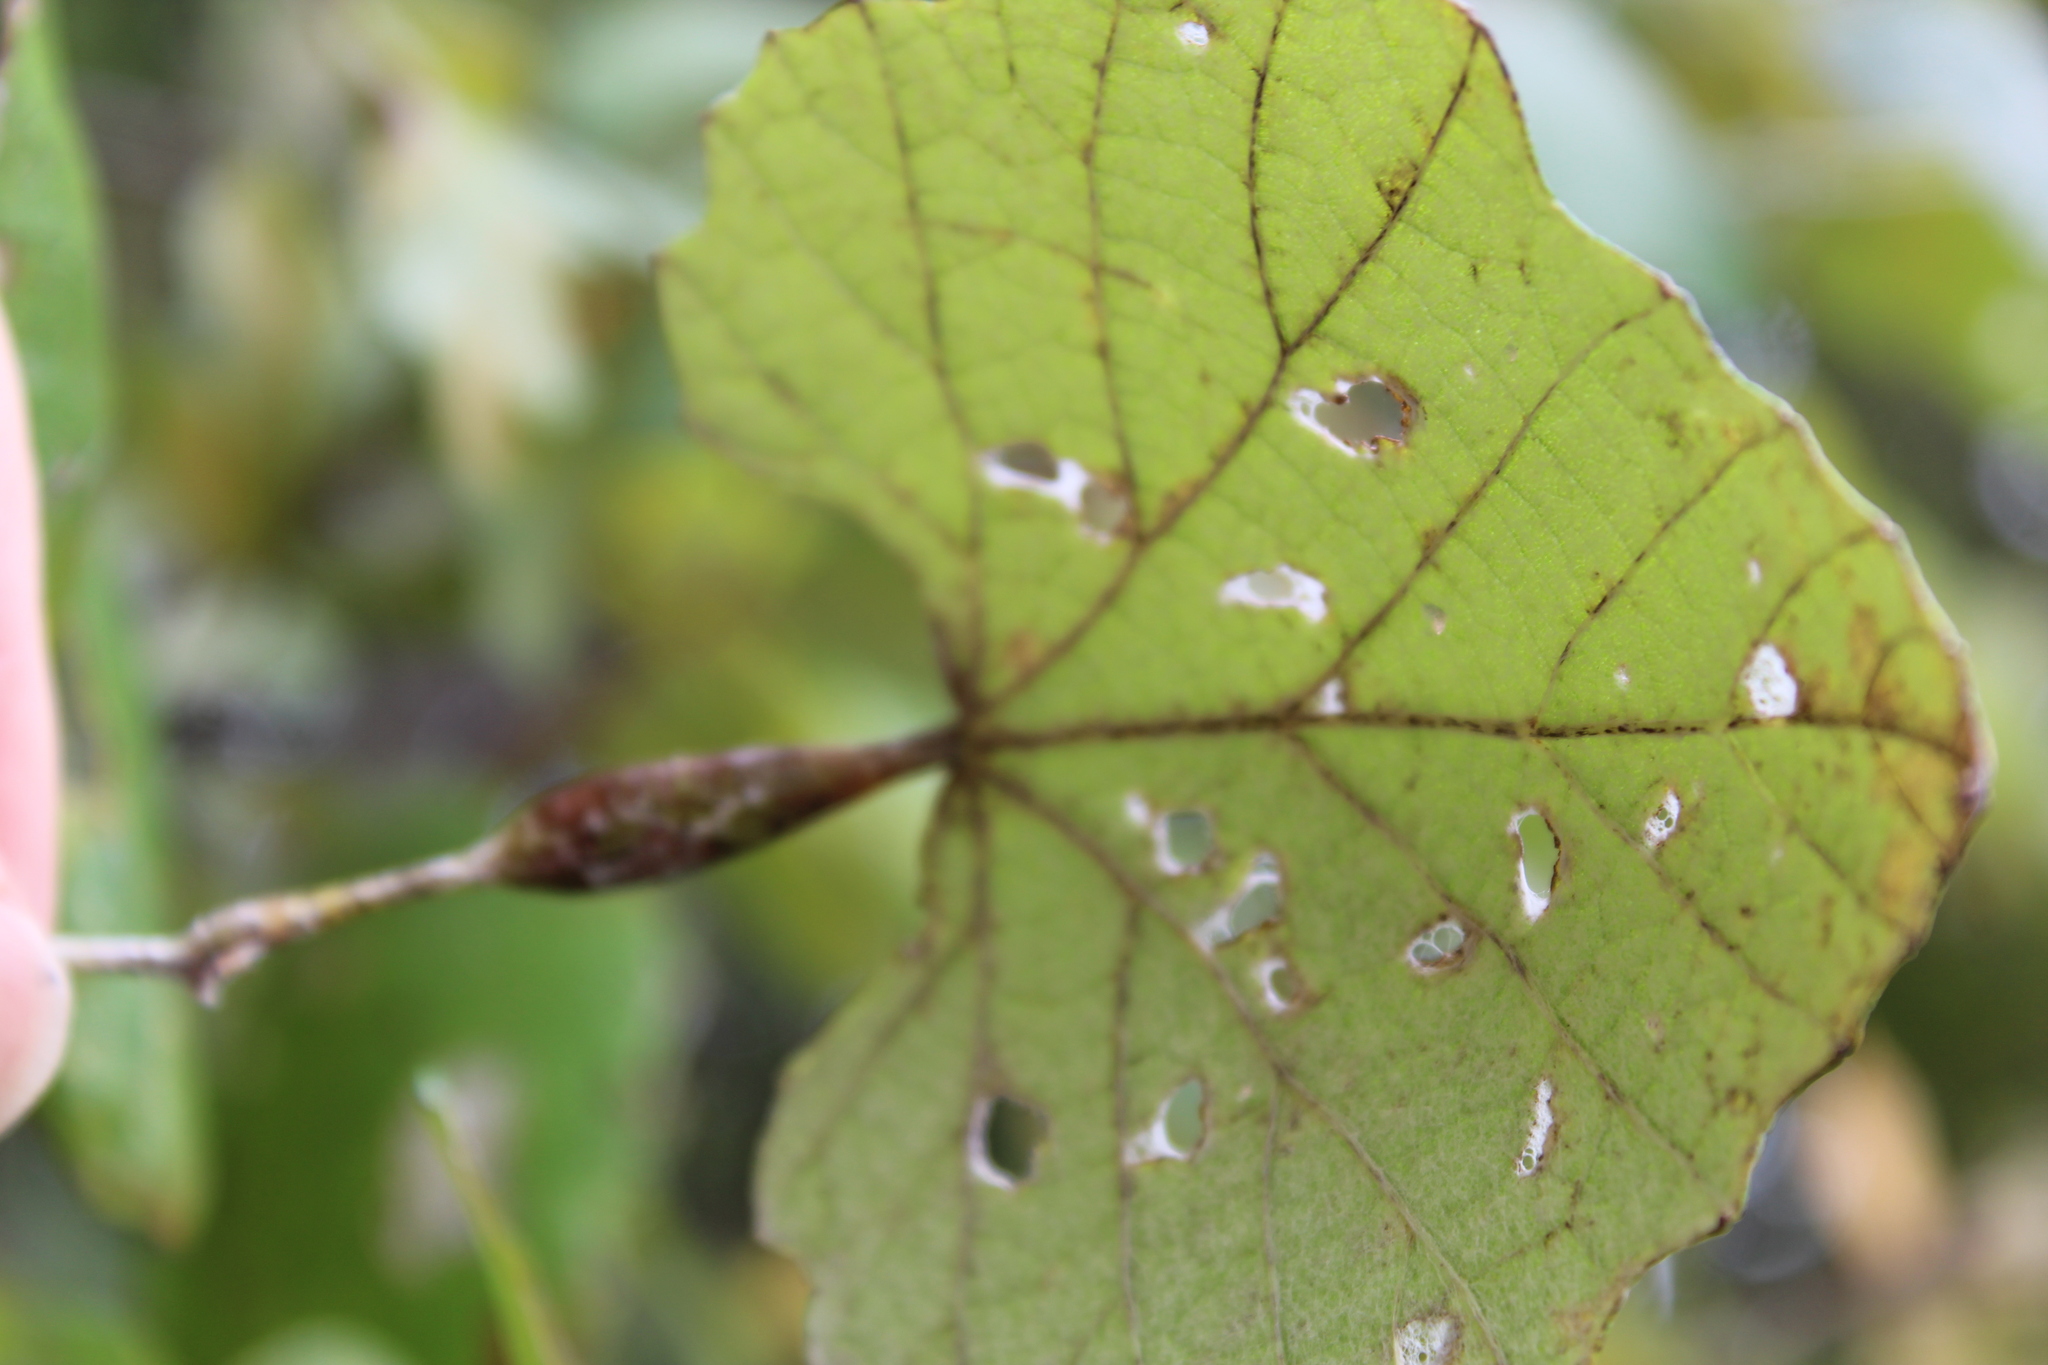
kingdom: Animalia
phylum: Arthropoda
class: Insecta
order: Diptera
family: Cecidomyiidae
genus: Neolasioptera
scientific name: Neolasioptera vitinea
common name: Grape leaf petiole gall
